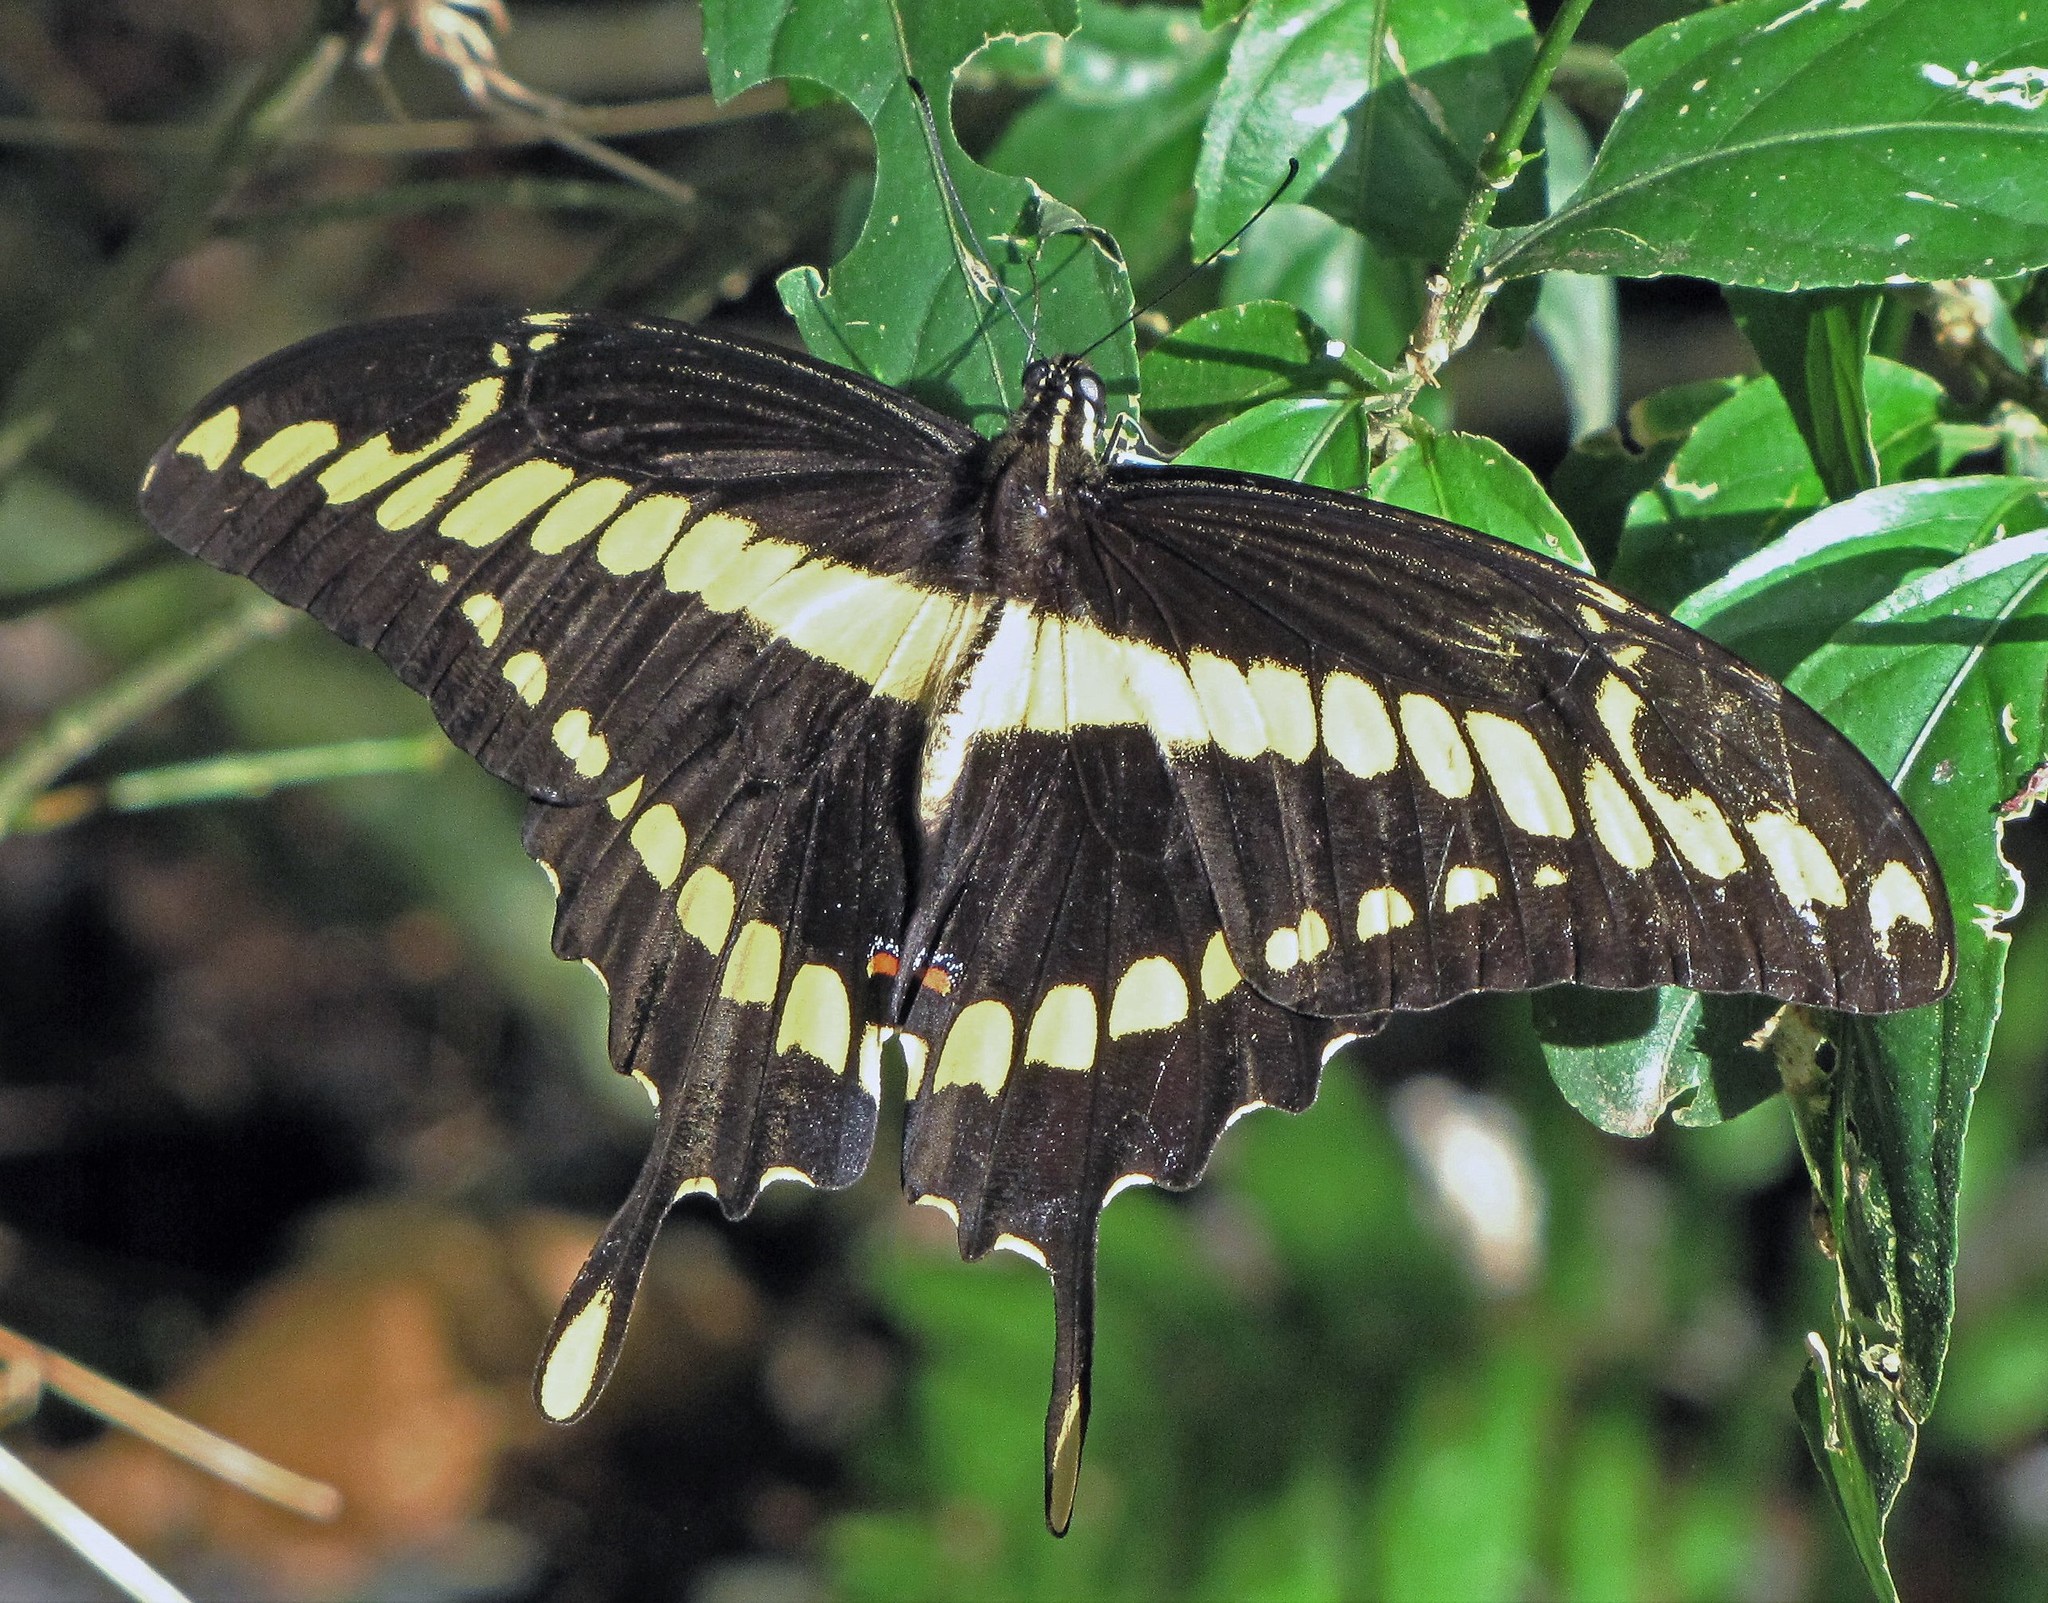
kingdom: Animalia
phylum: Arthropoda
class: Insecta
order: Lepidoptera
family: Papilionidae
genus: Papilio
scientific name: Papilio thoas
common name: King swallowtail
